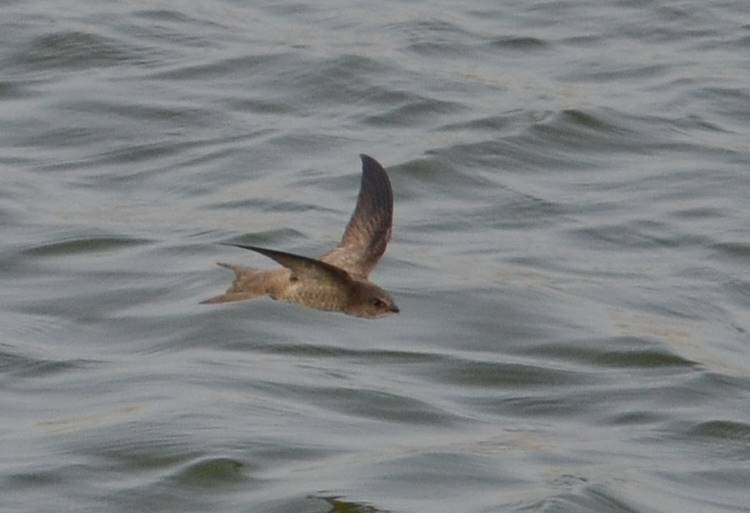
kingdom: Animalia
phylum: Chordata
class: Aves
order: Apodiformes
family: Apodidae
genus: Apus
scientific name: Apus pallidus
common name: Pallid swift
